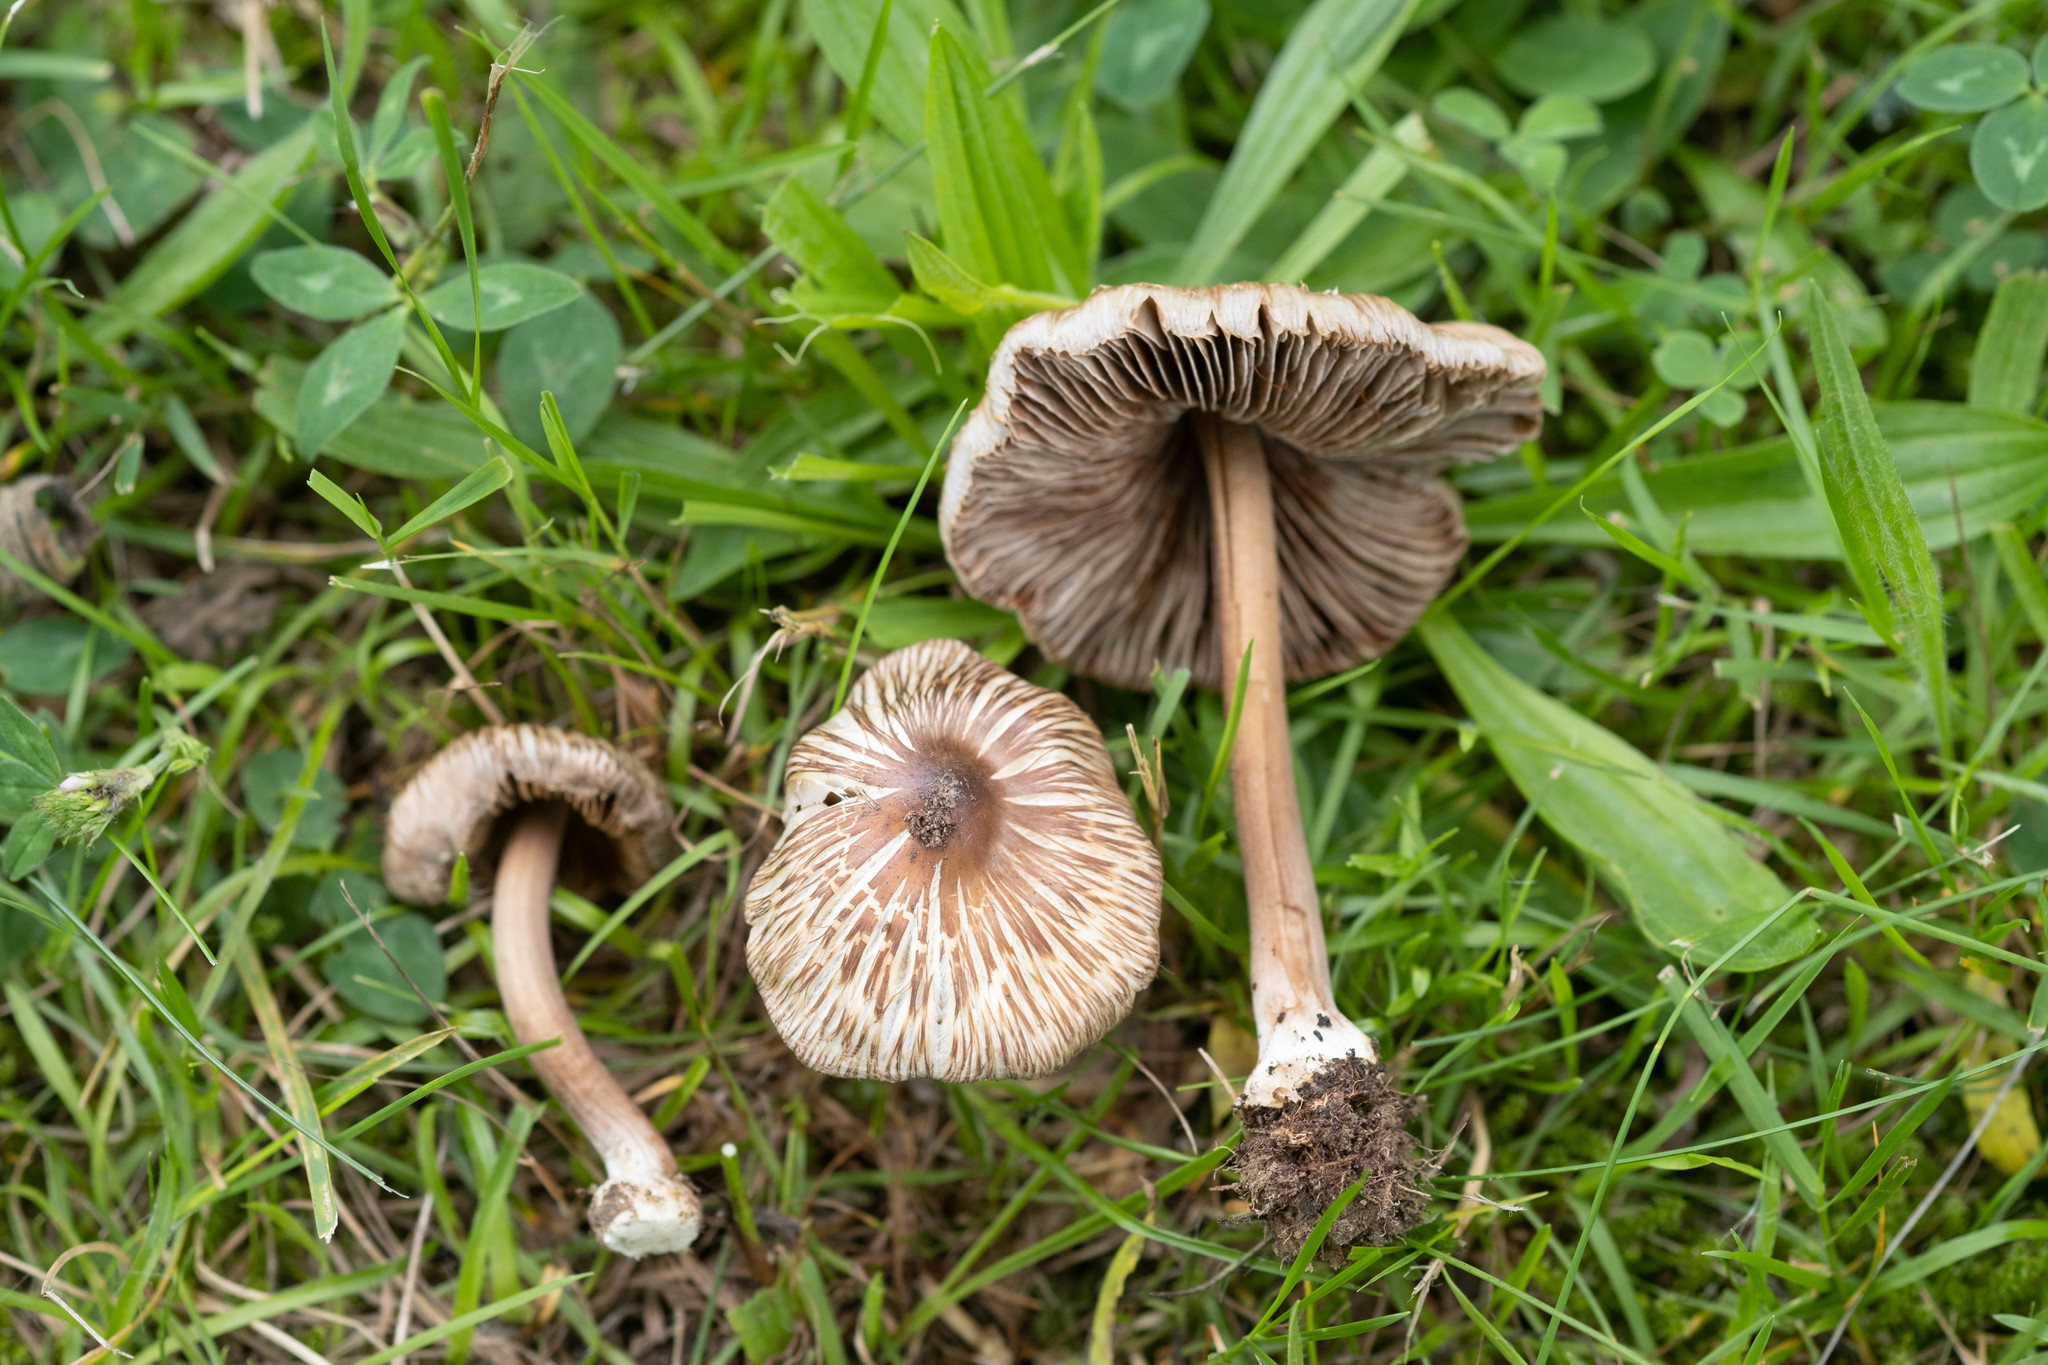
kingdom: Fungi
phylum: Basidiomycota
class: Agaricomycetes
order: Agaricales
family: Inocybaceae
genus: Inocybe
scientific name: Inocybe asterospora
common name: Star fibrecap
